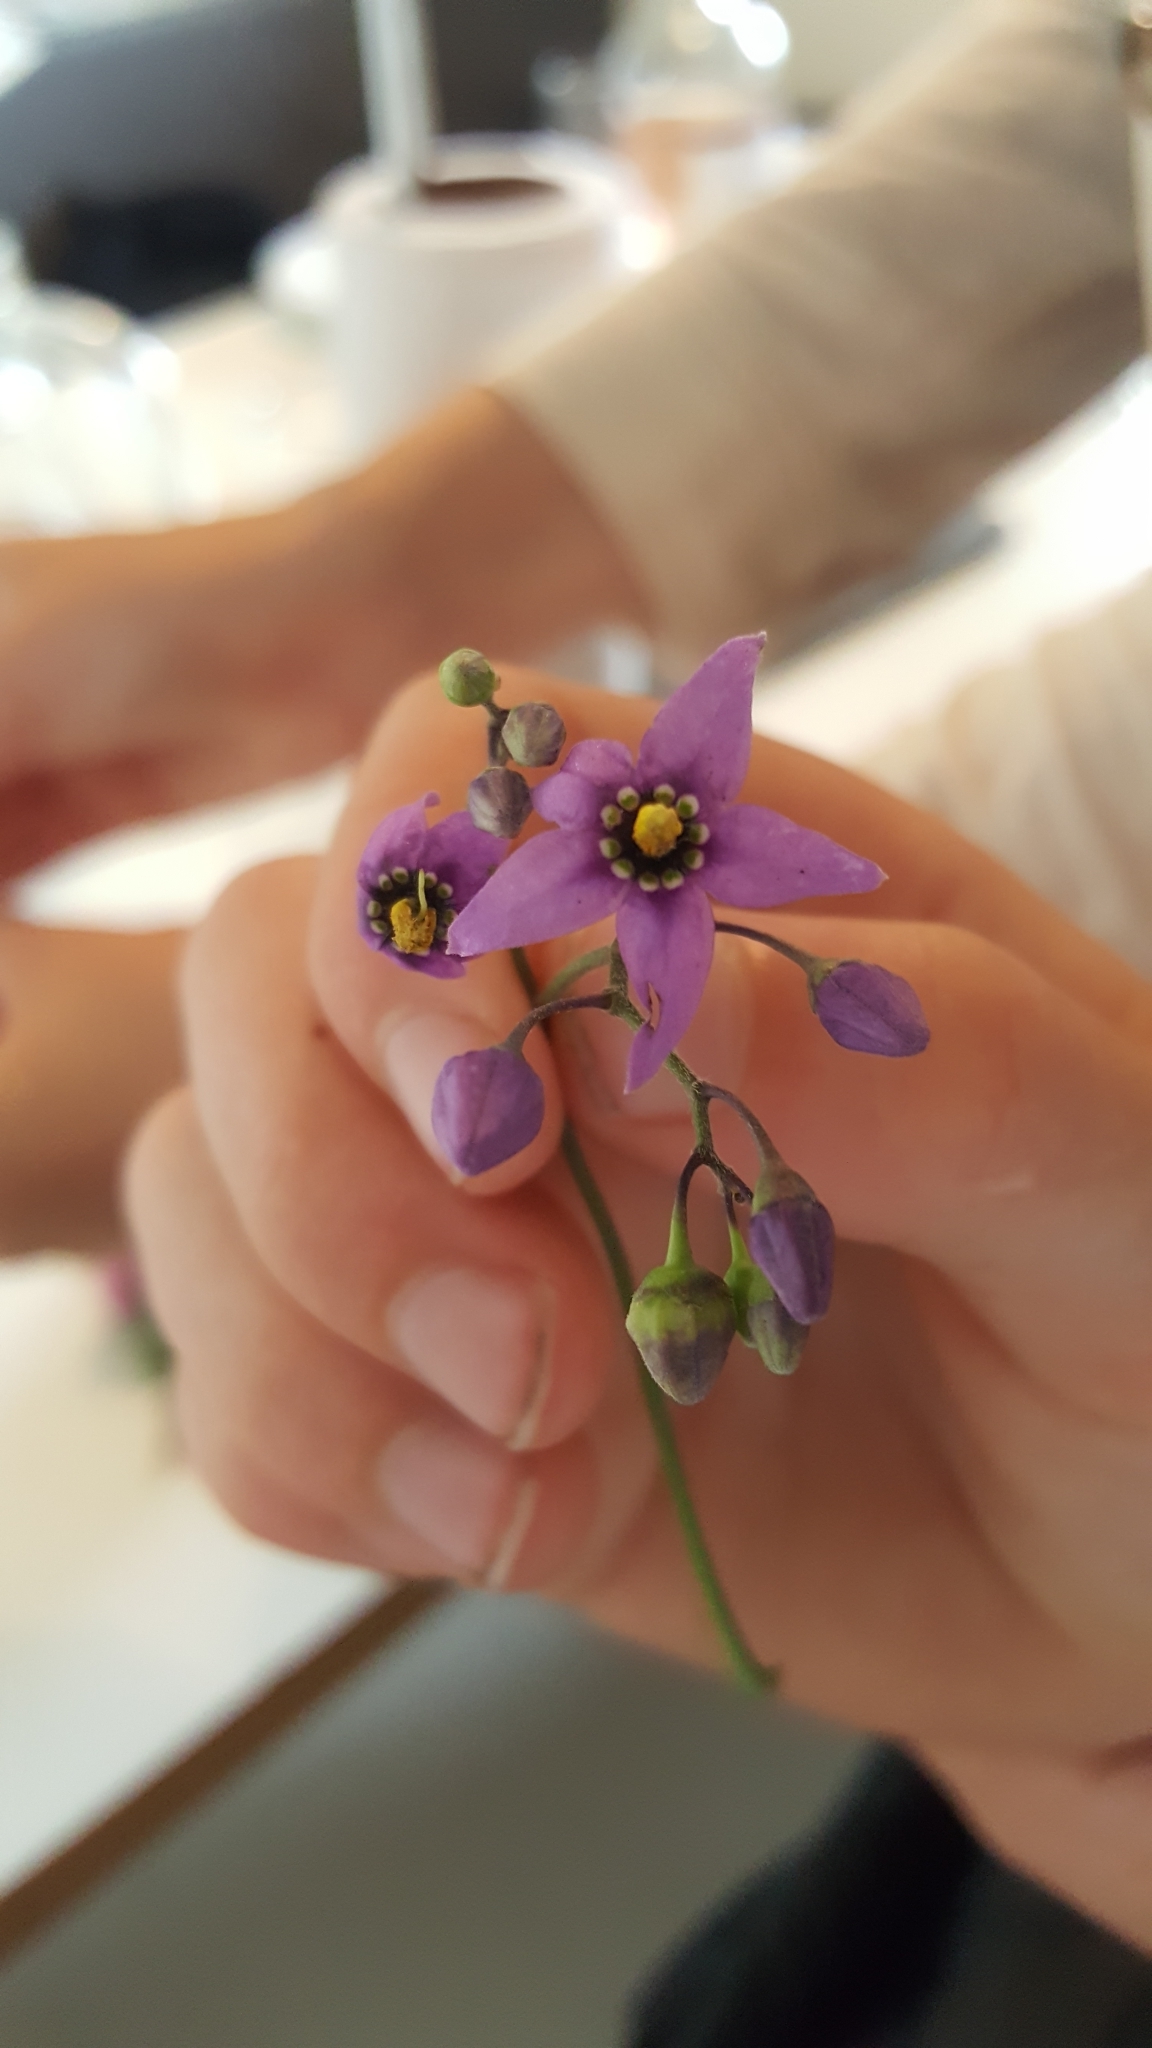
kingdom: Plantae
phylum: Tracheophyta
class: Magnoliopsida
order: Solanales
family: Solanaceae
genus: Solanum
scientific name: Solanum dulcamara
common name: Climbing nightshade
